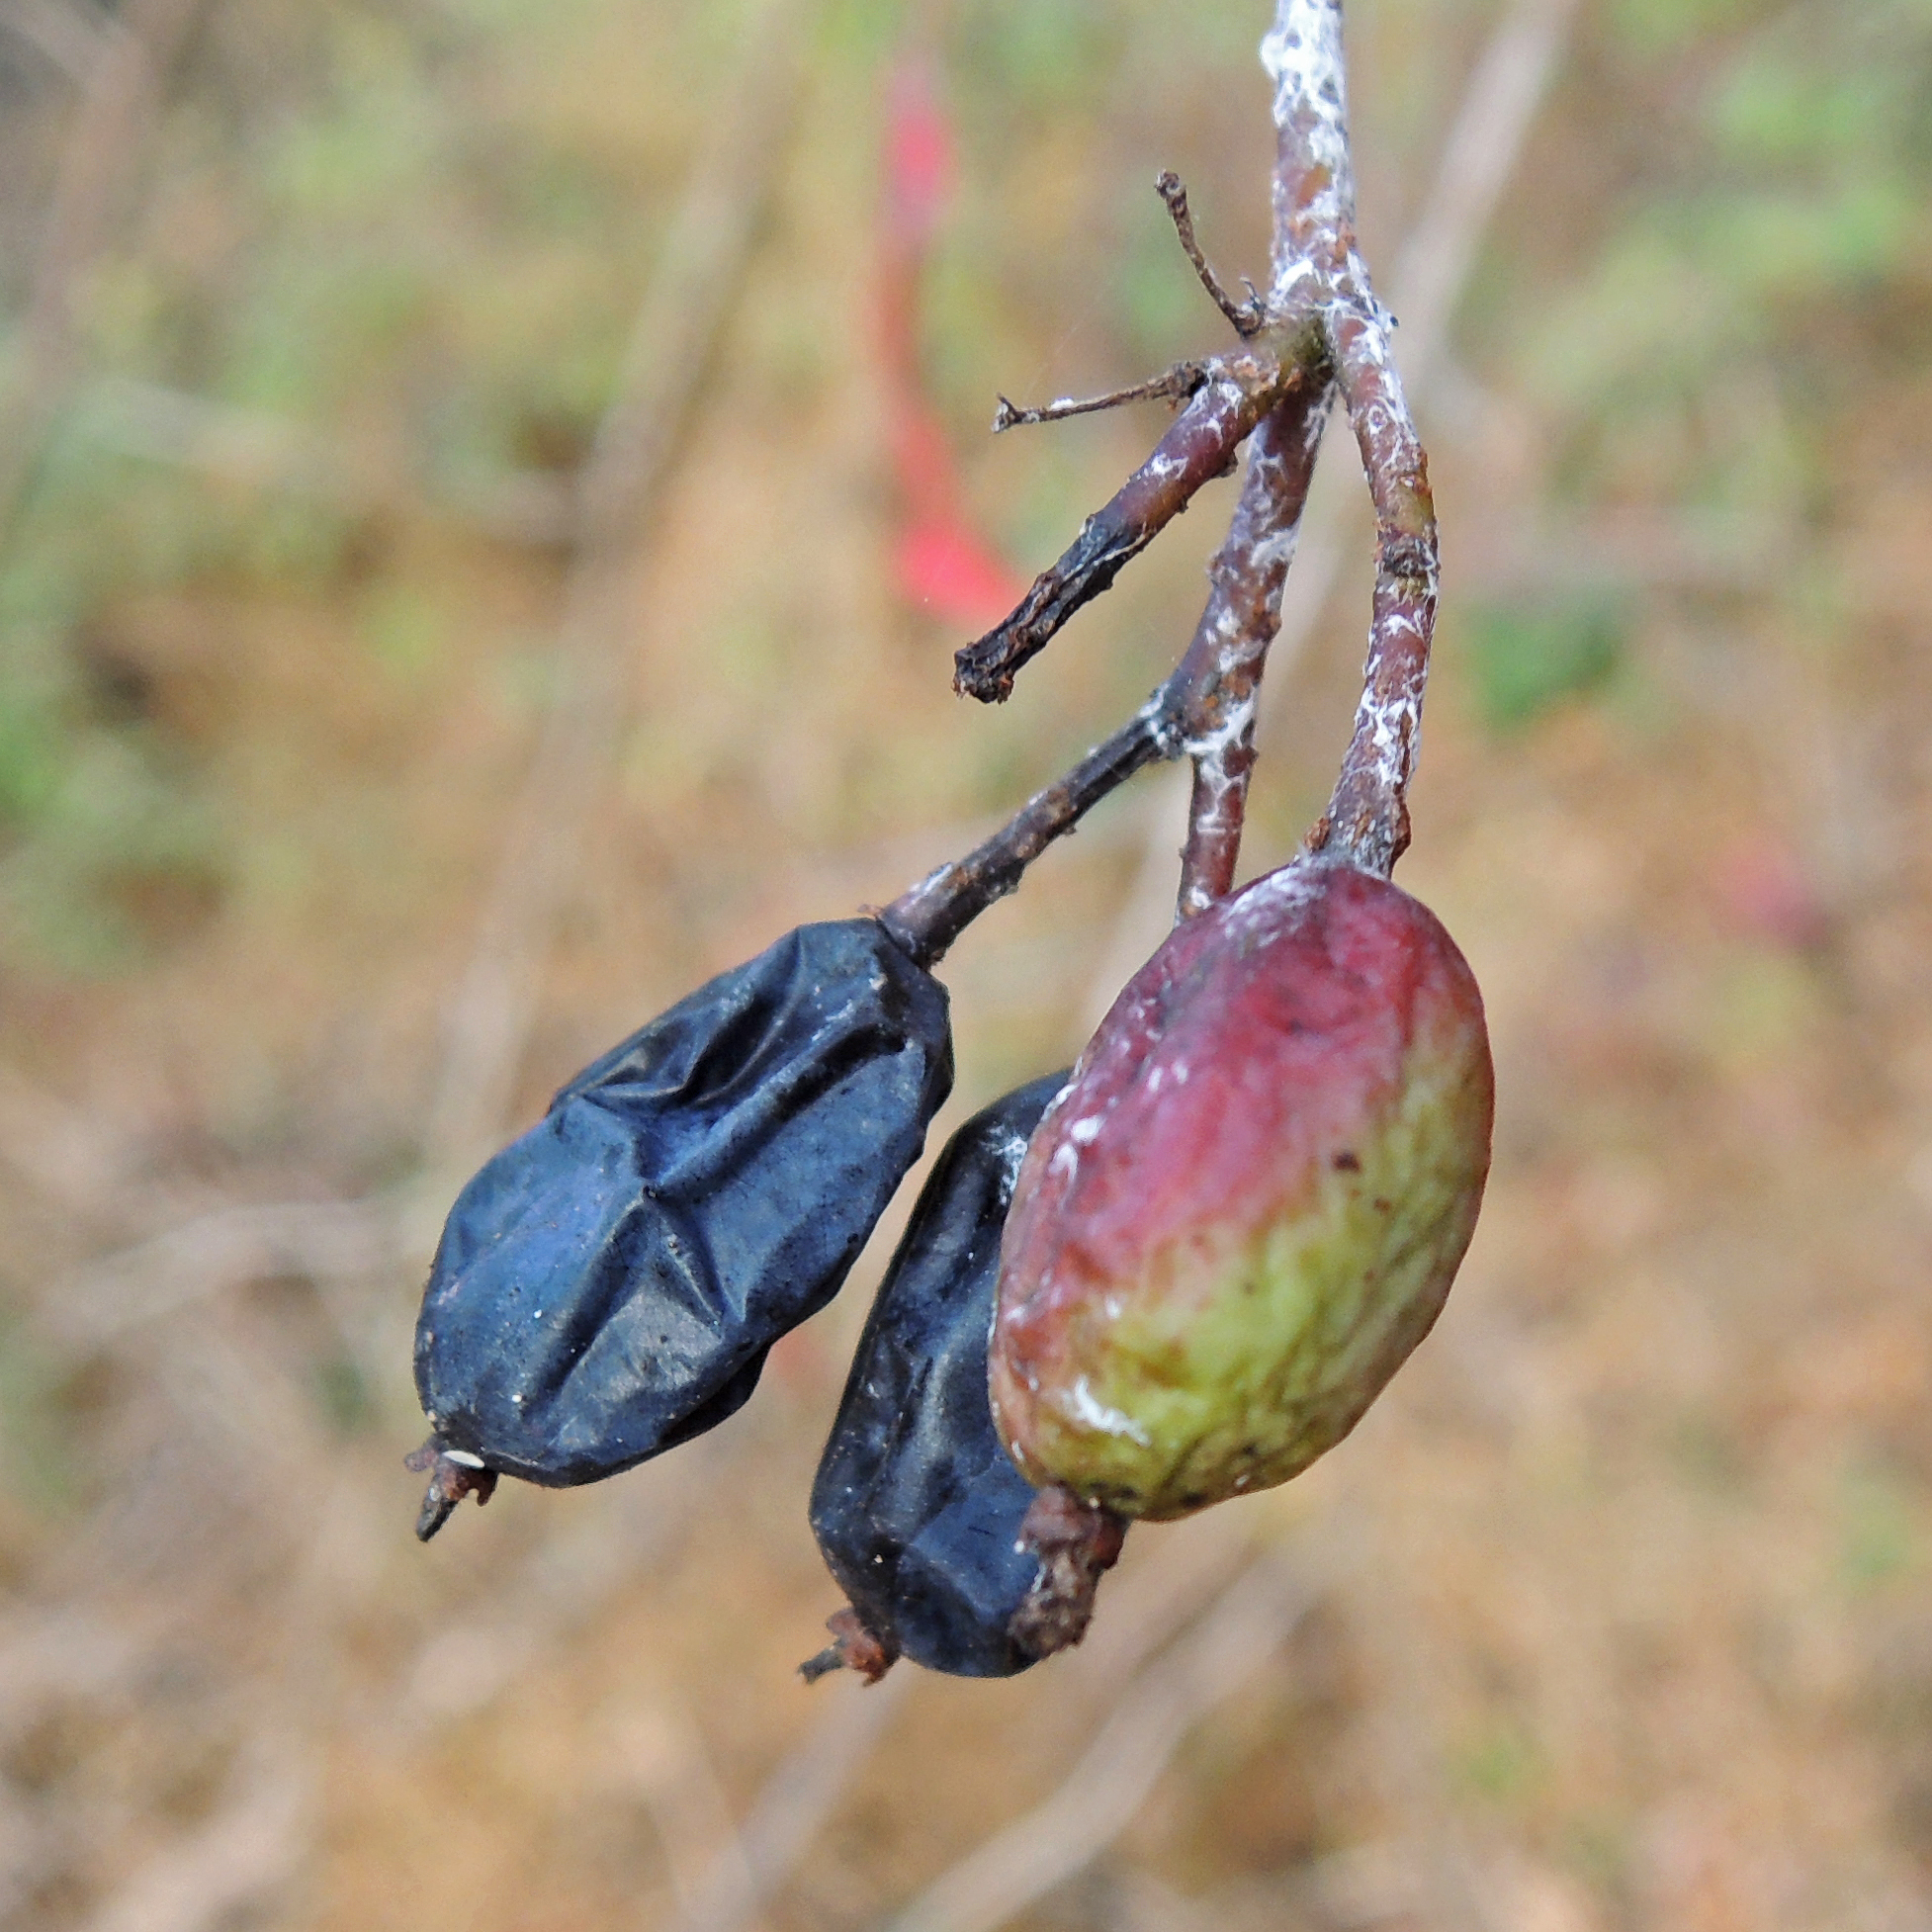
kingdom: Plantae
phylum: Tracheophyta
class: Magnoliopsida
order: Dipsacales
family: Viburnaceae
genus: Viburnum
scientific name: Viburnum prunifolium
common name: Black haw
